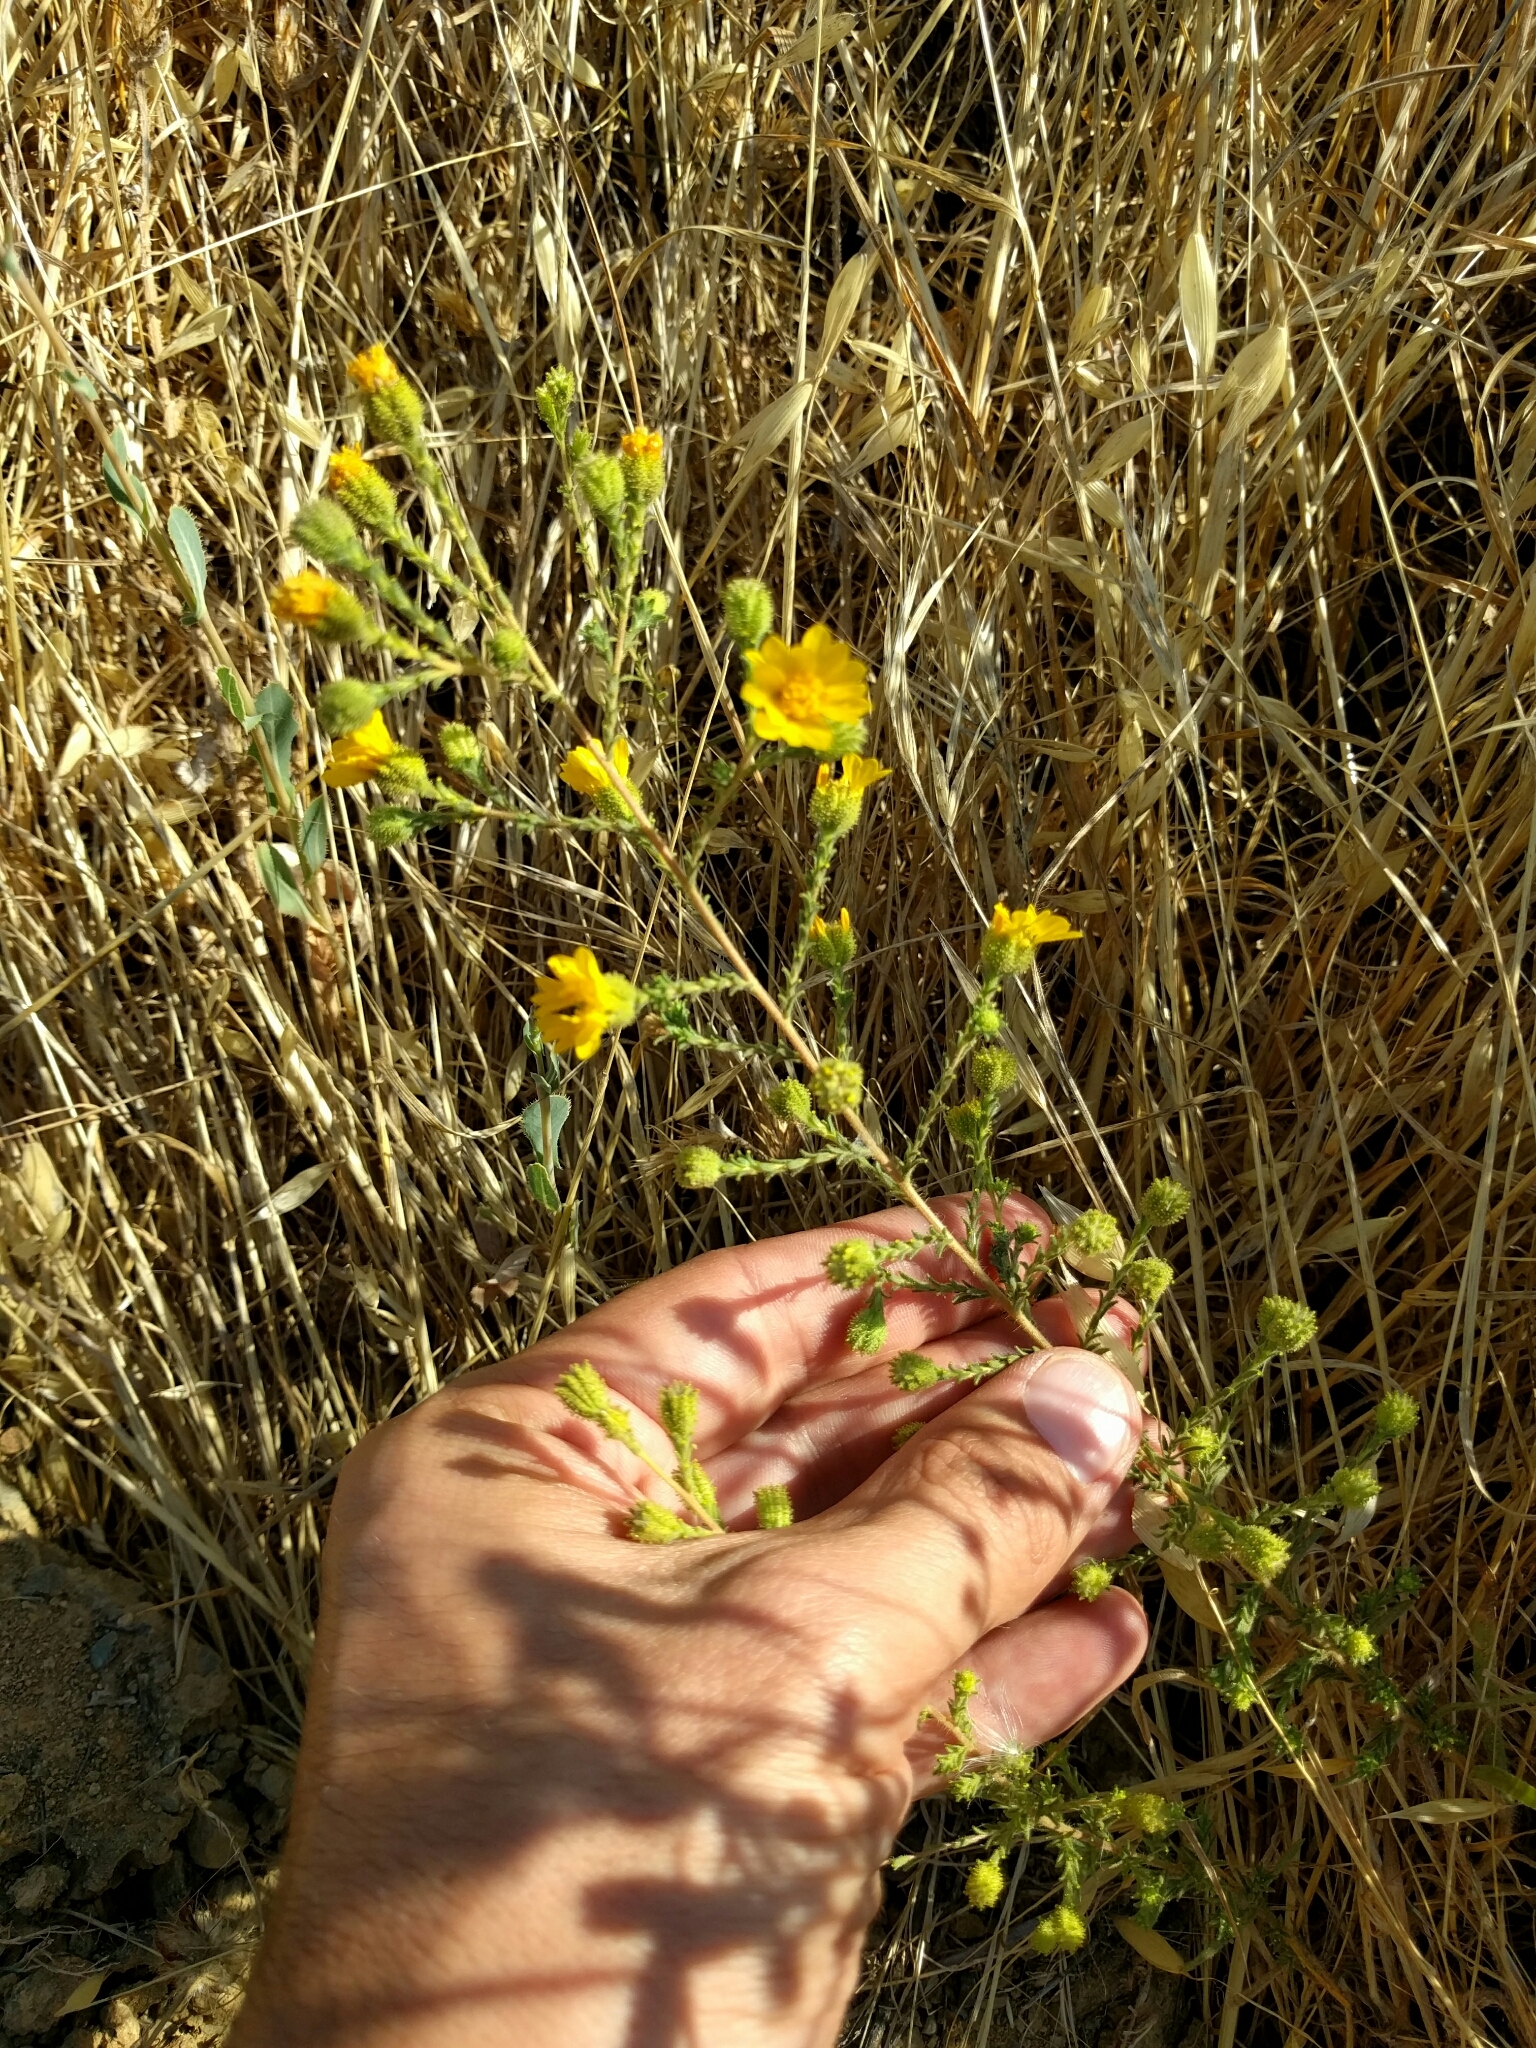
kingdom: Plantae
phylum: Tracheophyta
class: Magnoliopsida
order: Asterales
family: Asteraceae
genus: Holocarpha
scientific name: Holocarpha heermannii
